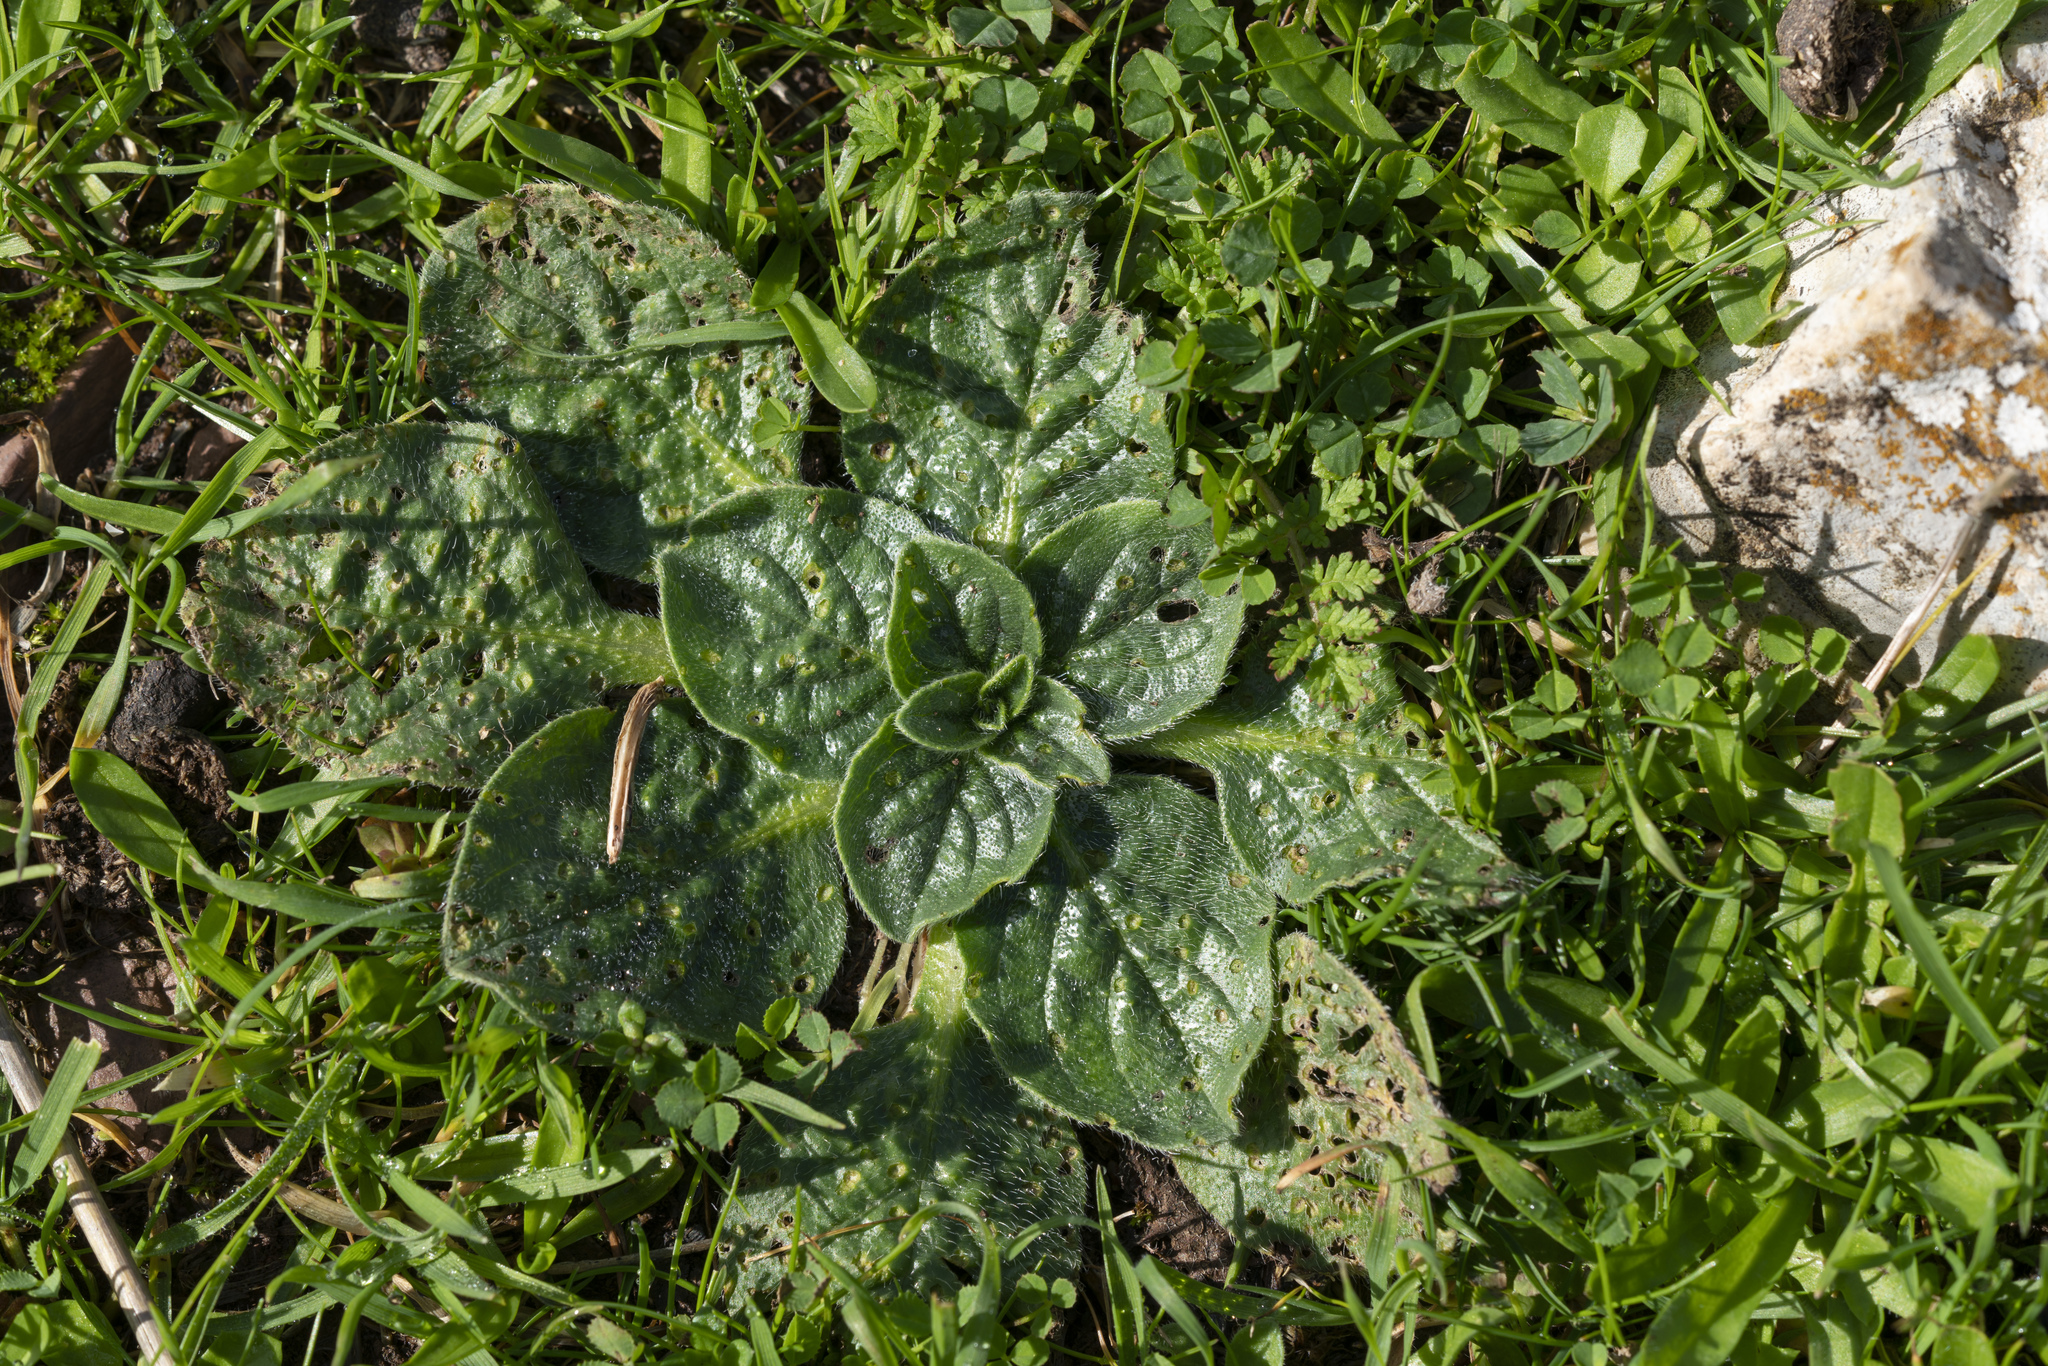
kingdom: Plantae
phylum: Tracheophyta
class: Magnoliopsida
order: Boraginales
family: Boraginaceae
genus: Echium
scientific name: Echium plantagineum
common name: Purple viper's-bugloss
